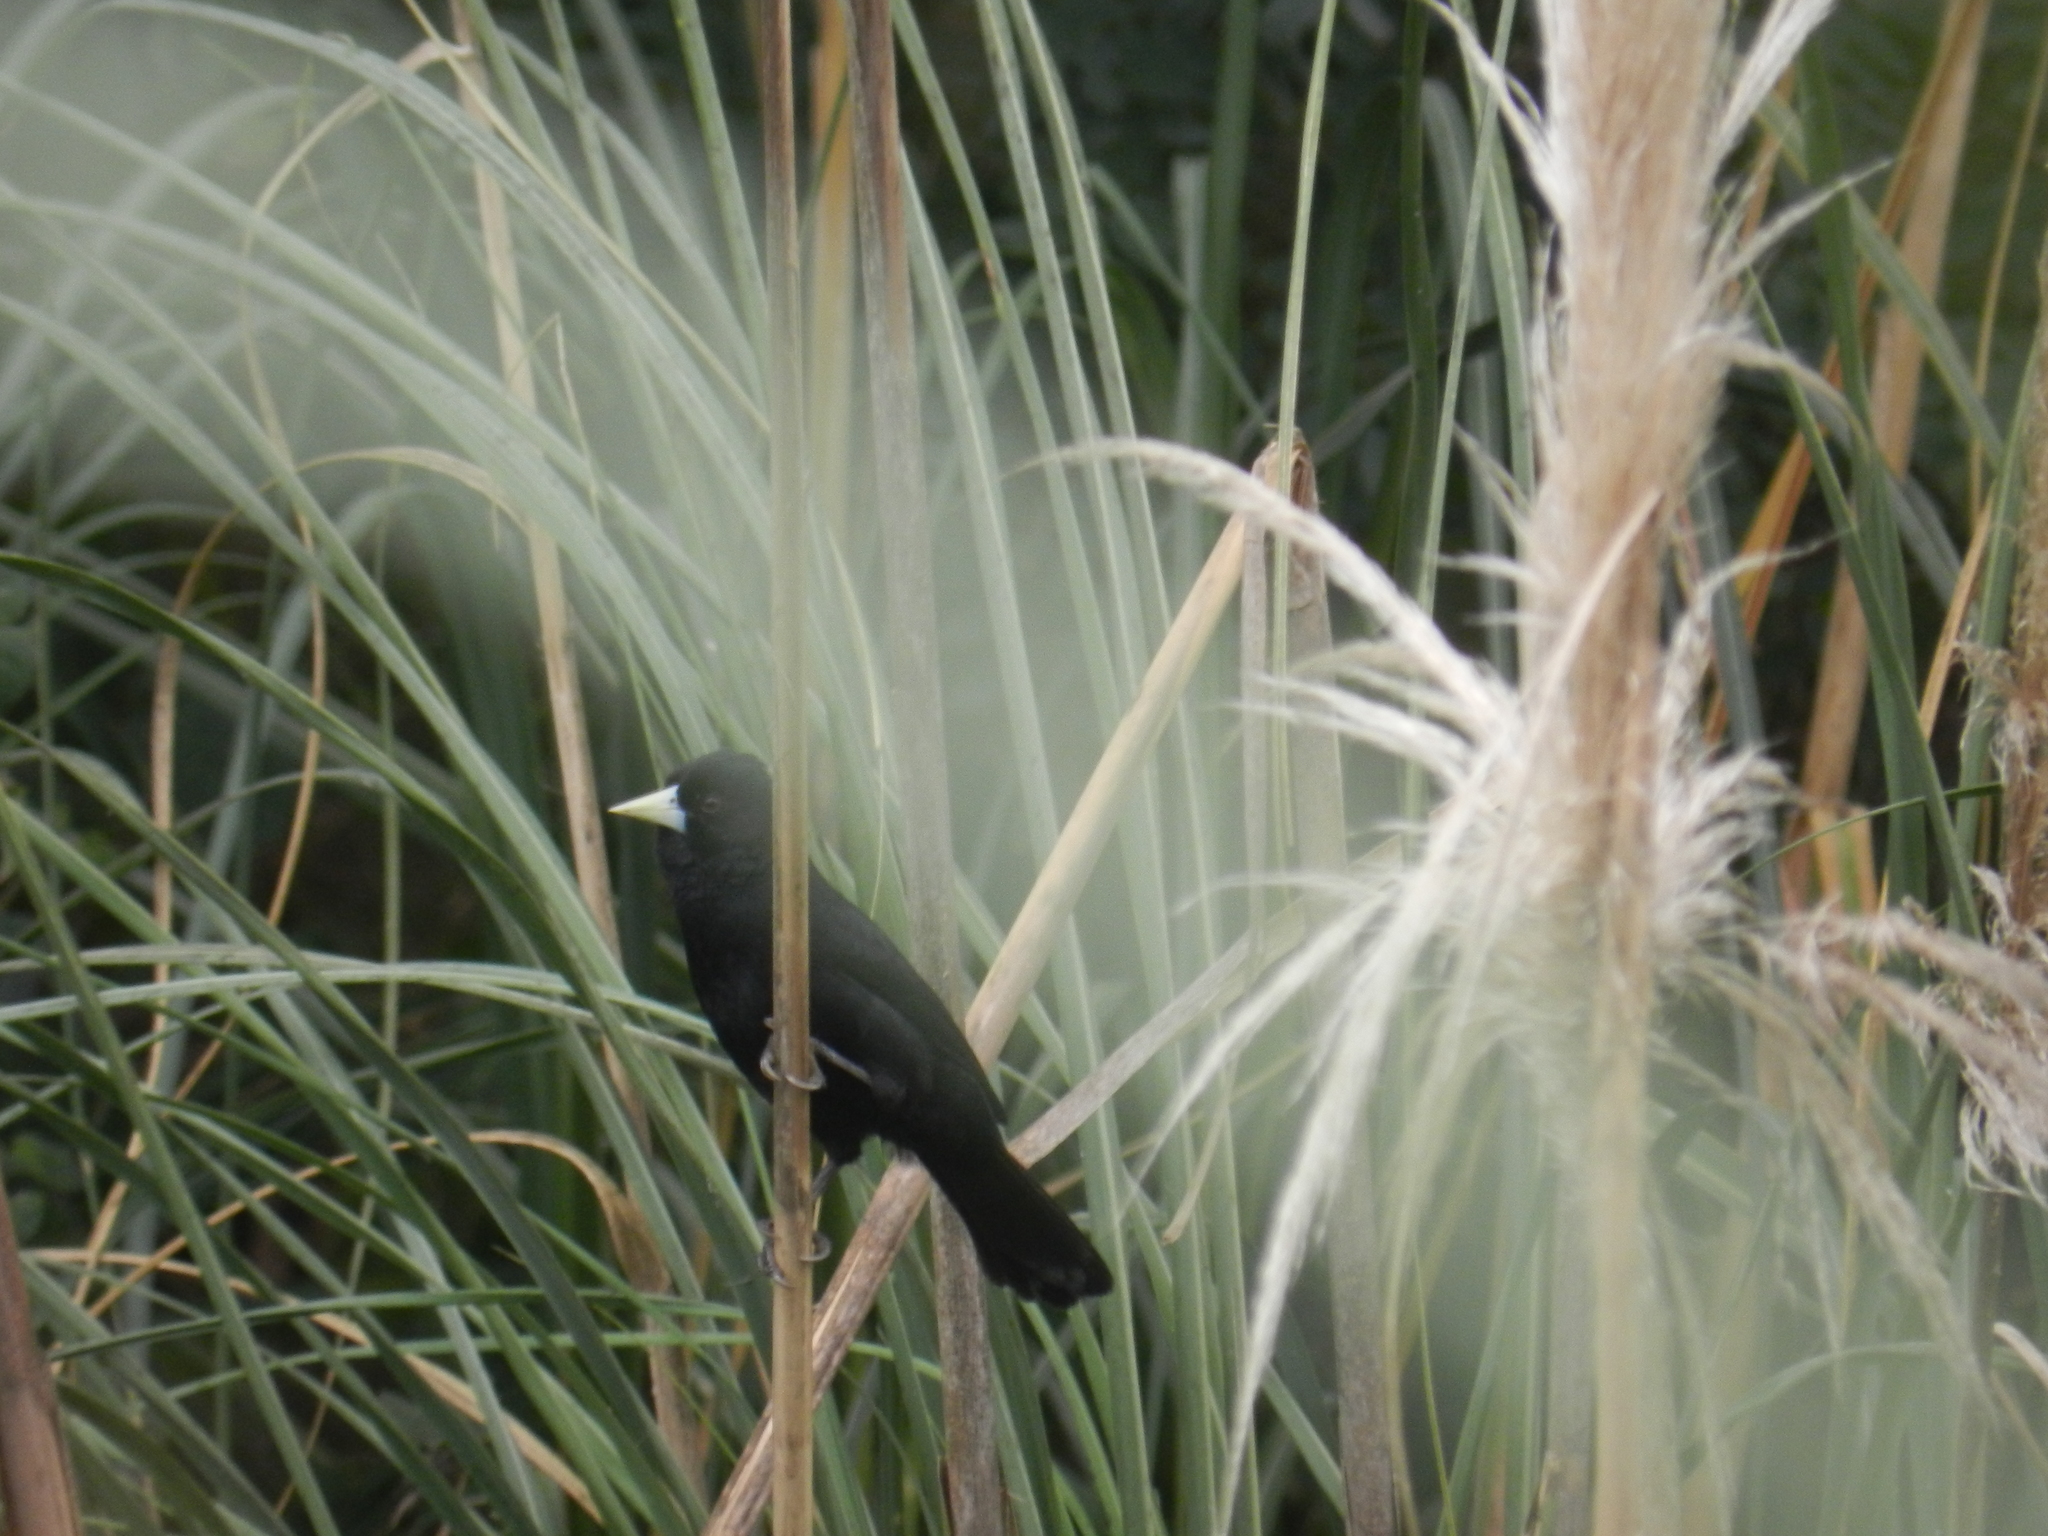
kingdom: Animalia
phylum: Chordata
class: Aves
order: Passeriformes
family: Icteridae
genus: Cacicus
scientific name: Cacicus solitarius
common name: Solitary cacique
